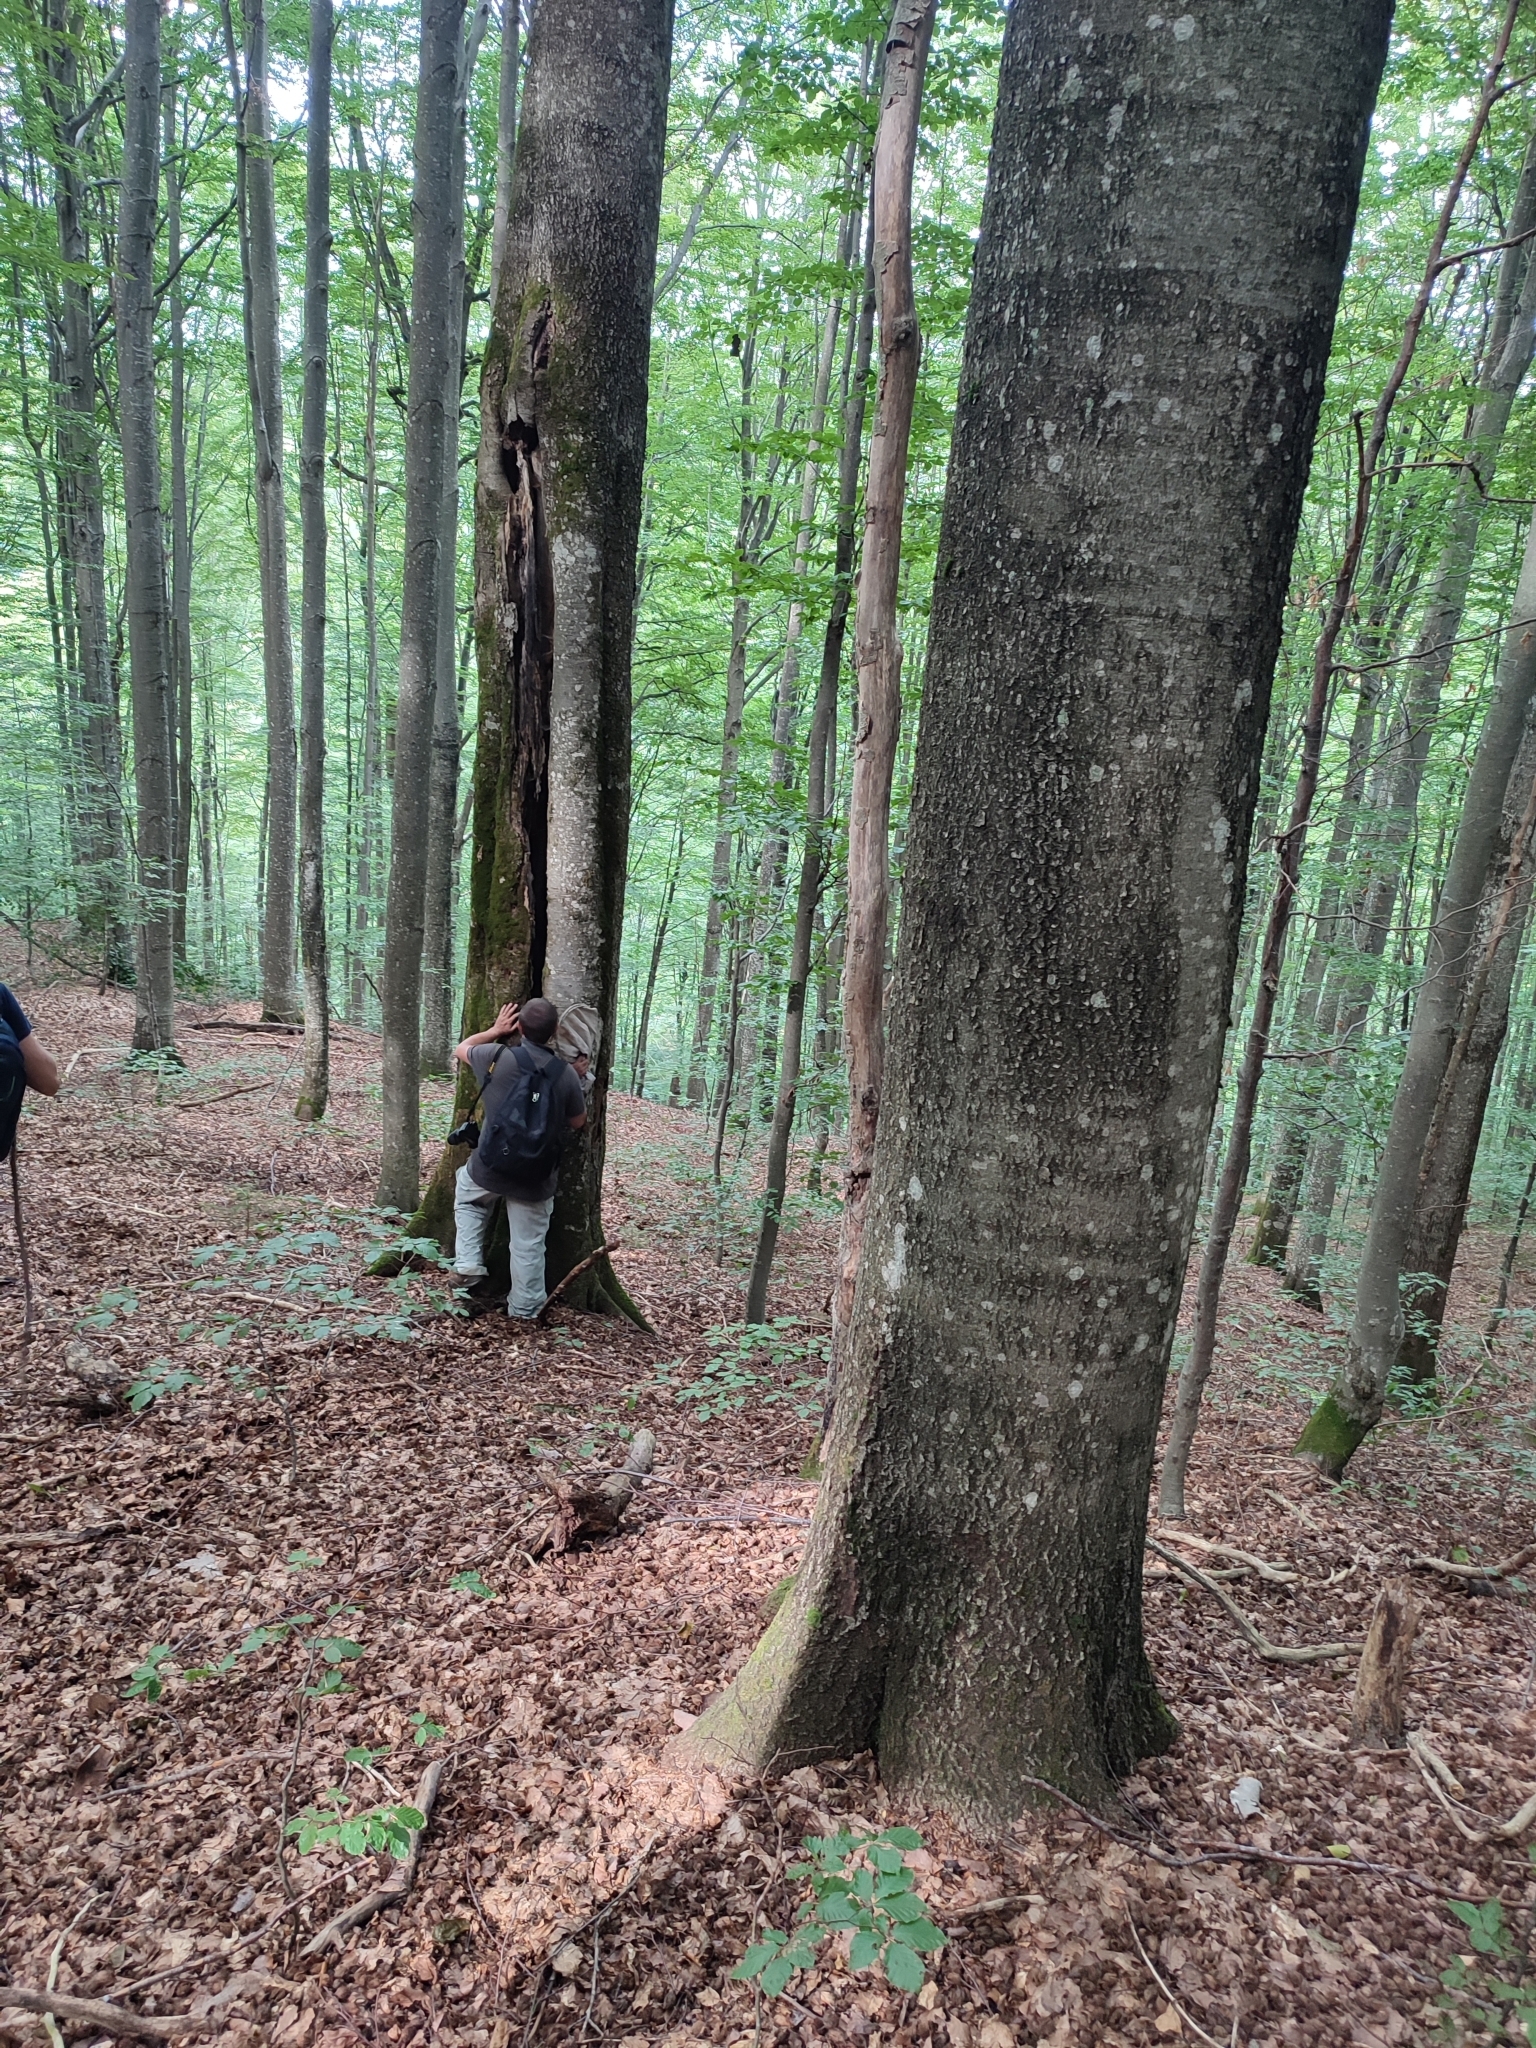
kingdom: Plantae
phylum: Tracheophyta
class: Magnoliopsida
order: Fagales
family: Fagaceae
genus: Fagus
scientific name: Fagus sylvatica
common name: Beech
